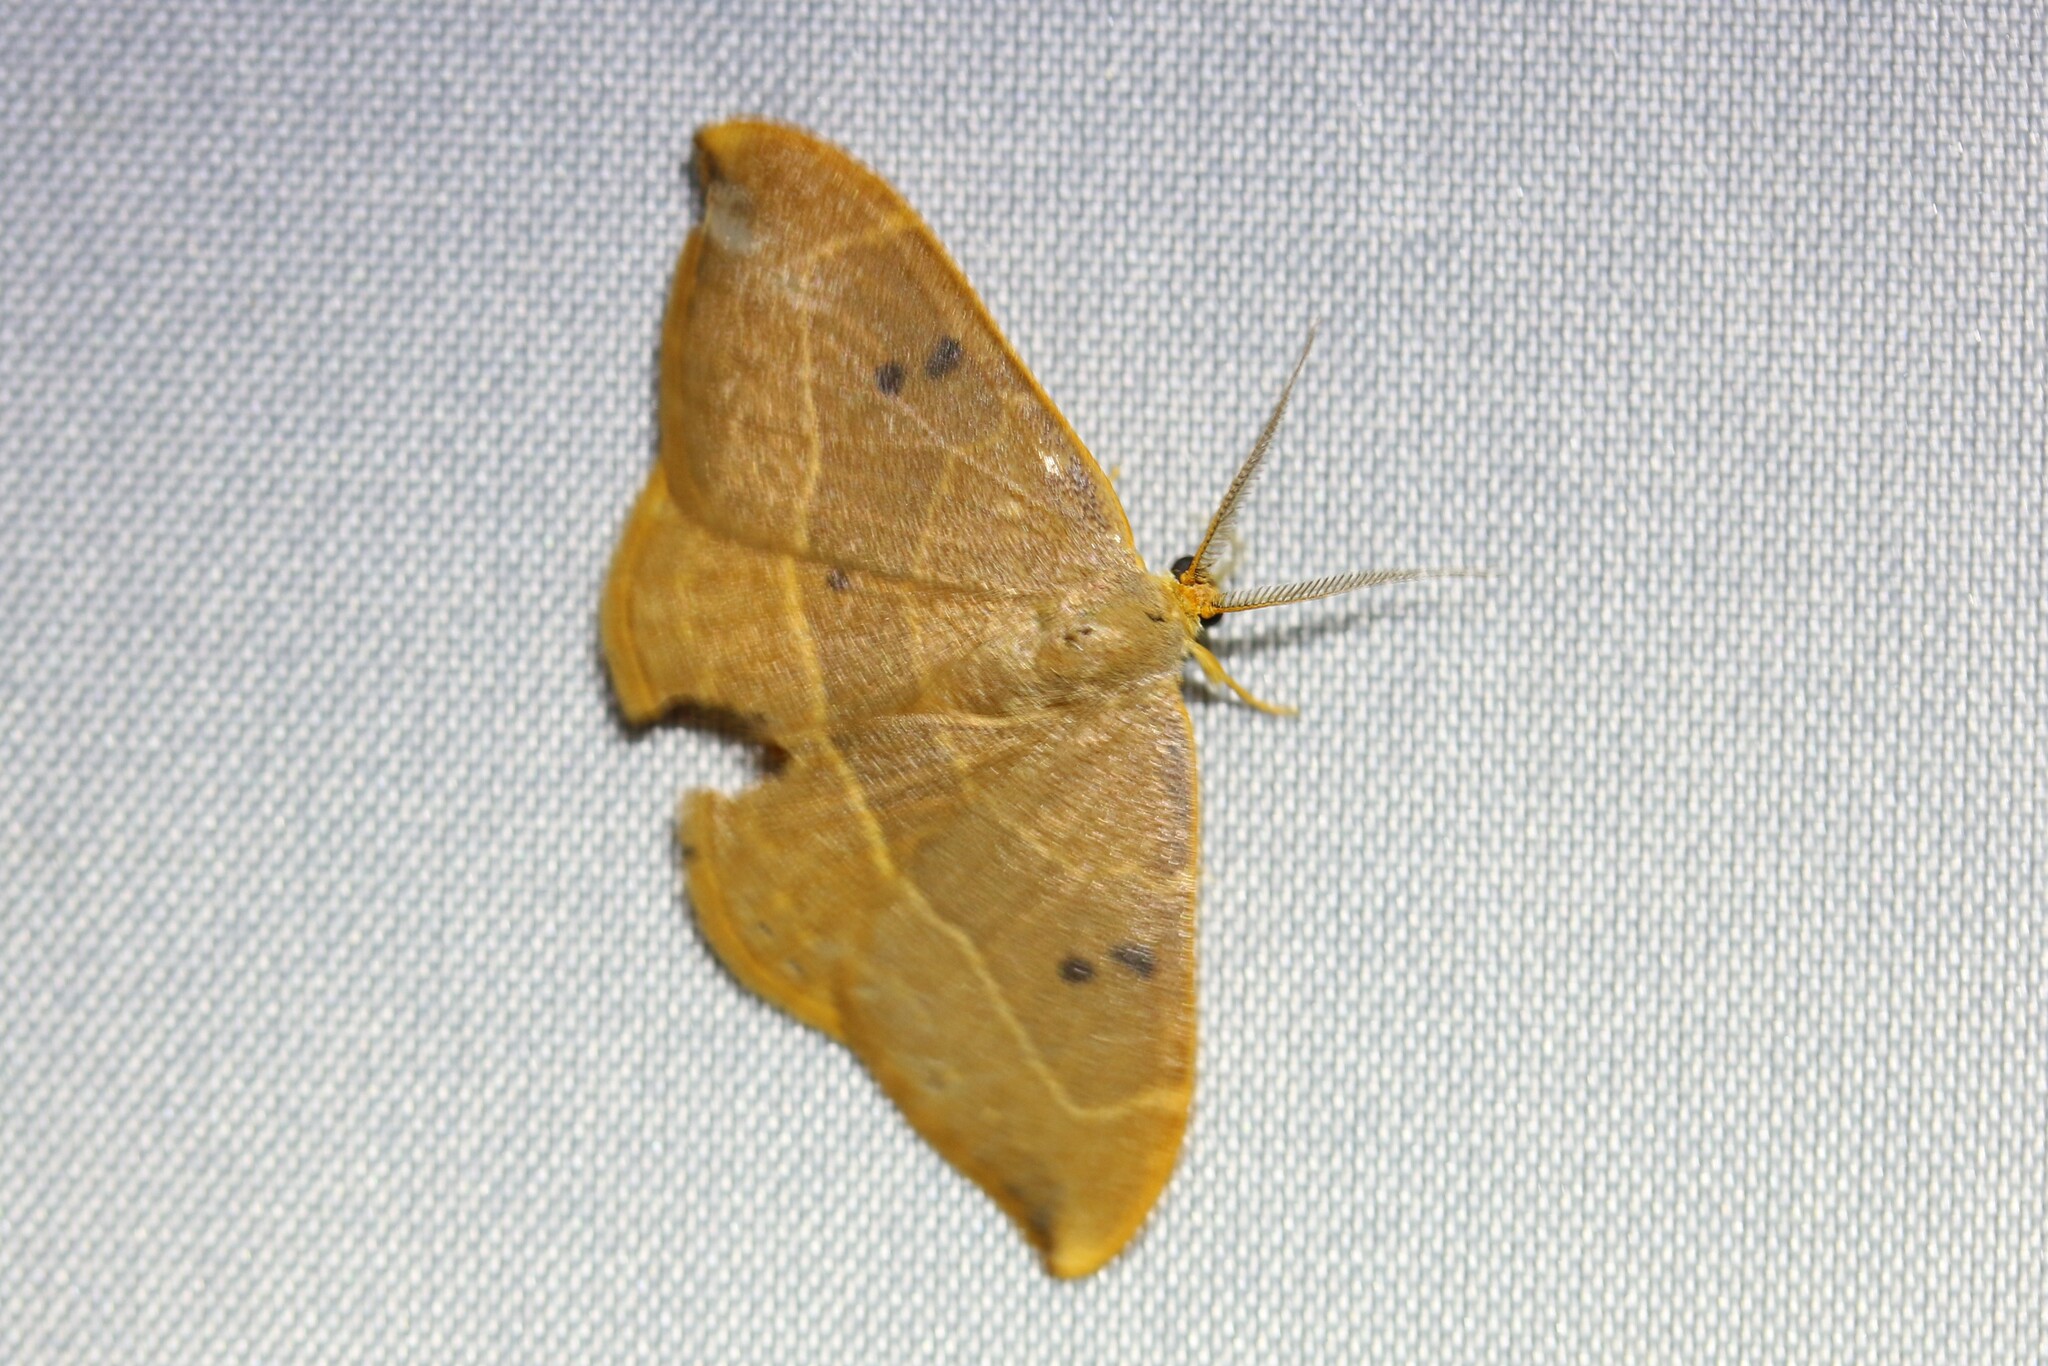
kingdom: Animalia
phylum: Arthropoda
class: Insecta
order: Lepidoptera
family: Drepanidae
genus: Watsonalla
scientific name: Watsonalla binaria
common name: Oak hook-tip
